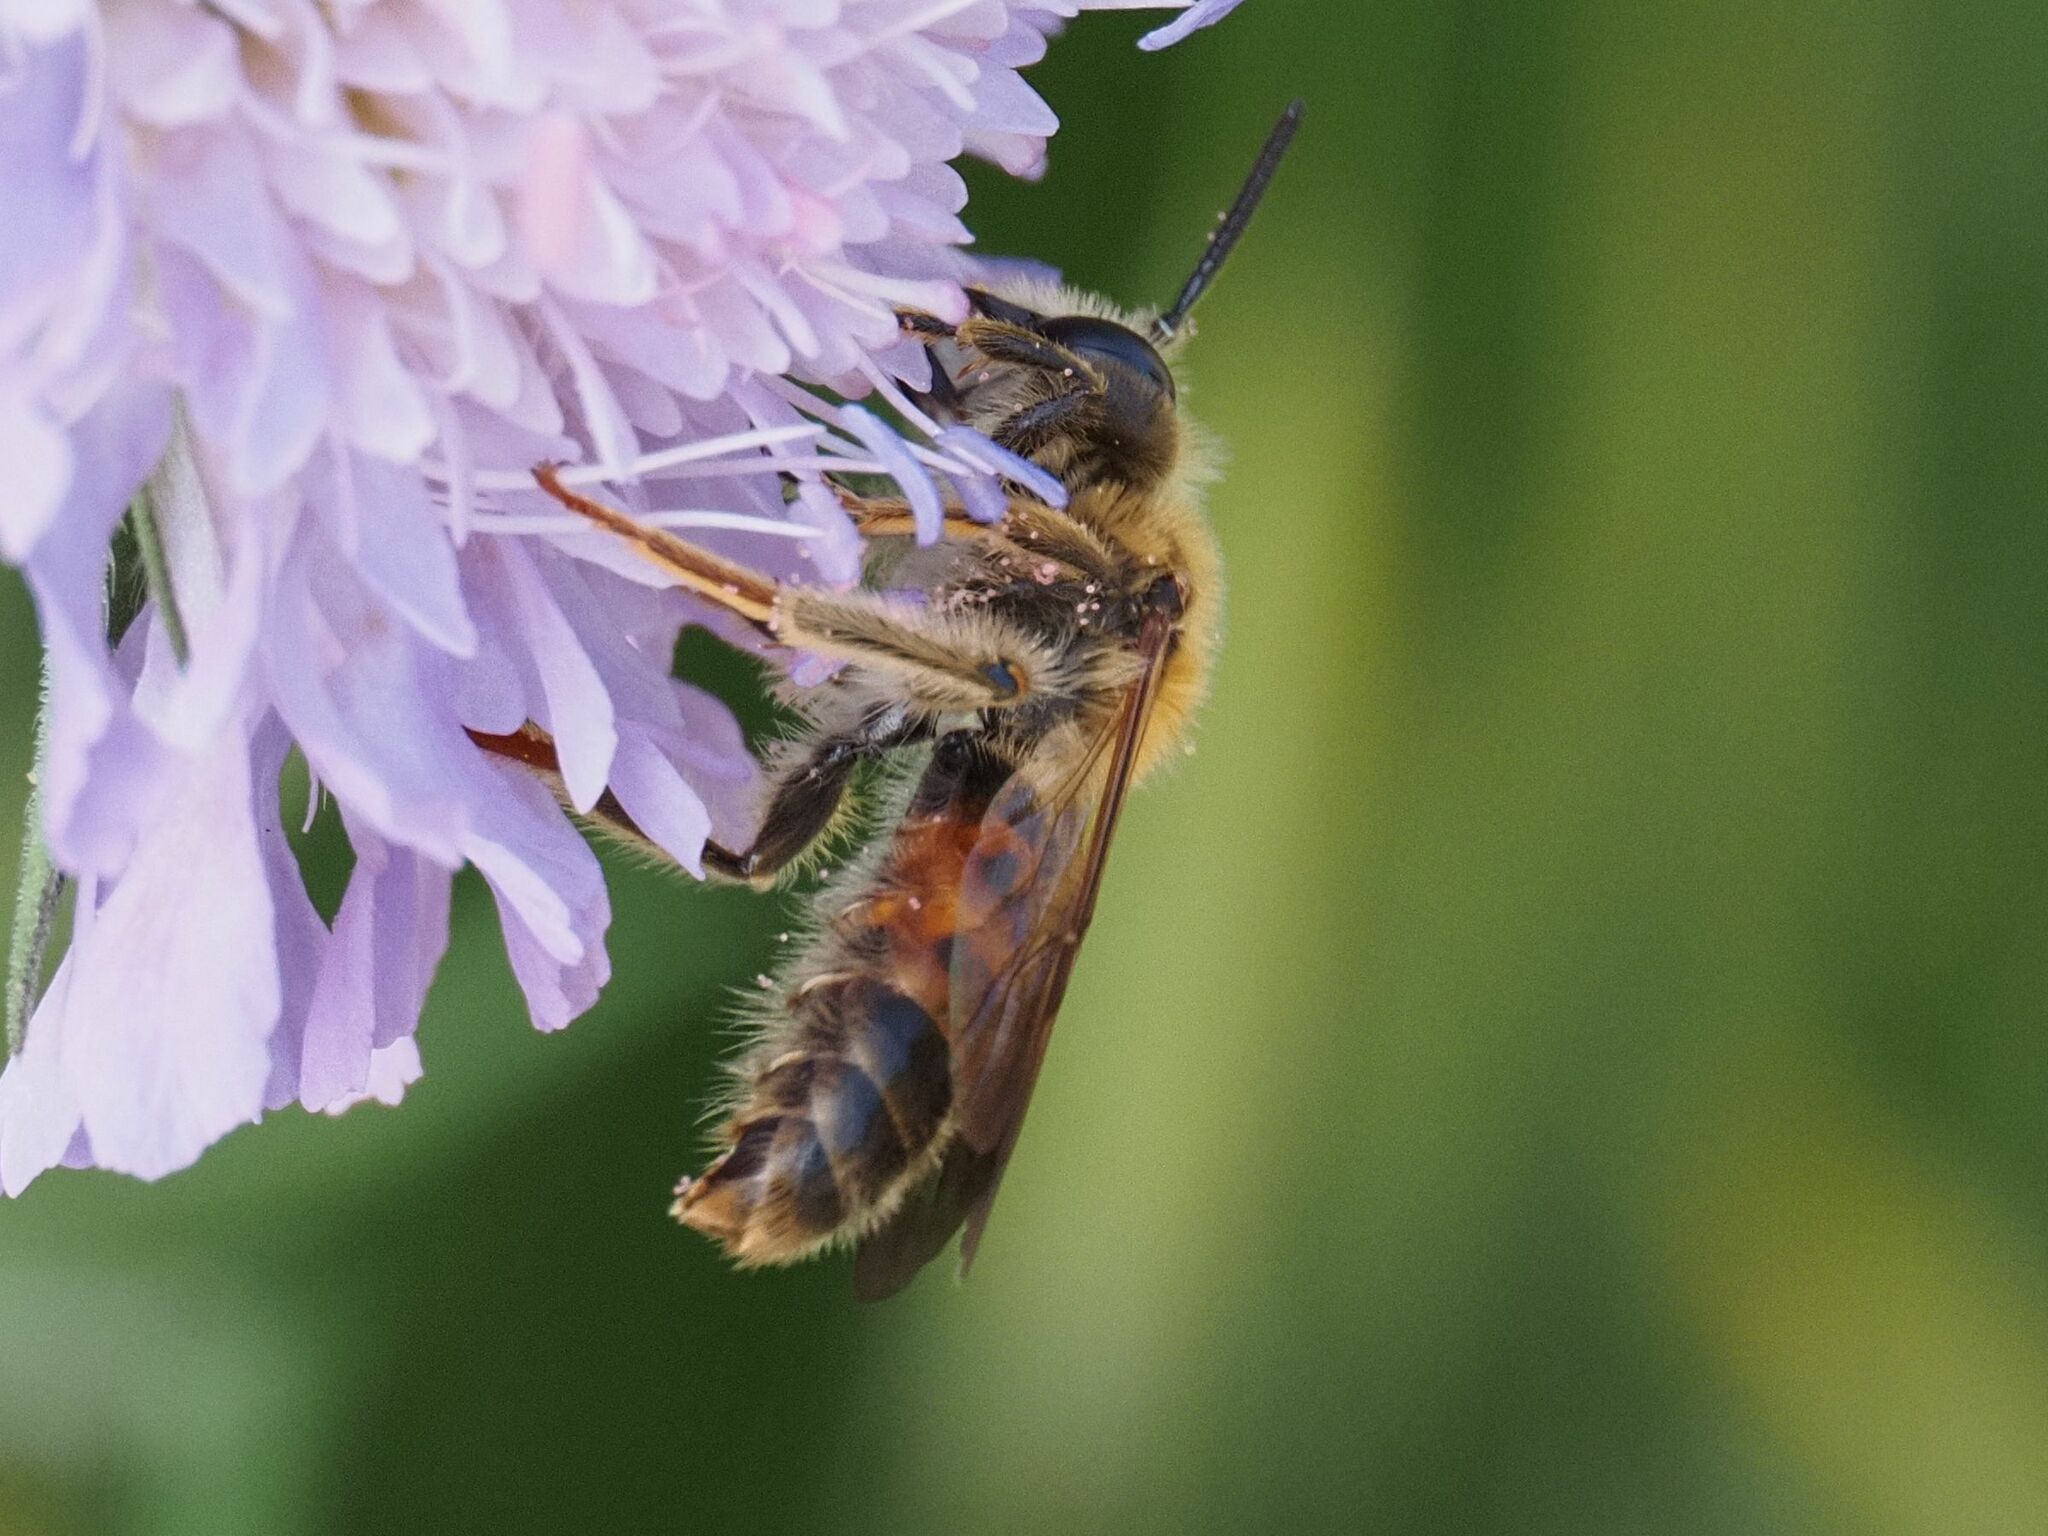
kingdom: Animalia
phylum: Arthropoda
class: Insecta
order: Hymenoptera
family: Andrenidae
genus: Andrena
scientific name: Andrena hattorfiana
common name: Large scabious mining bee
